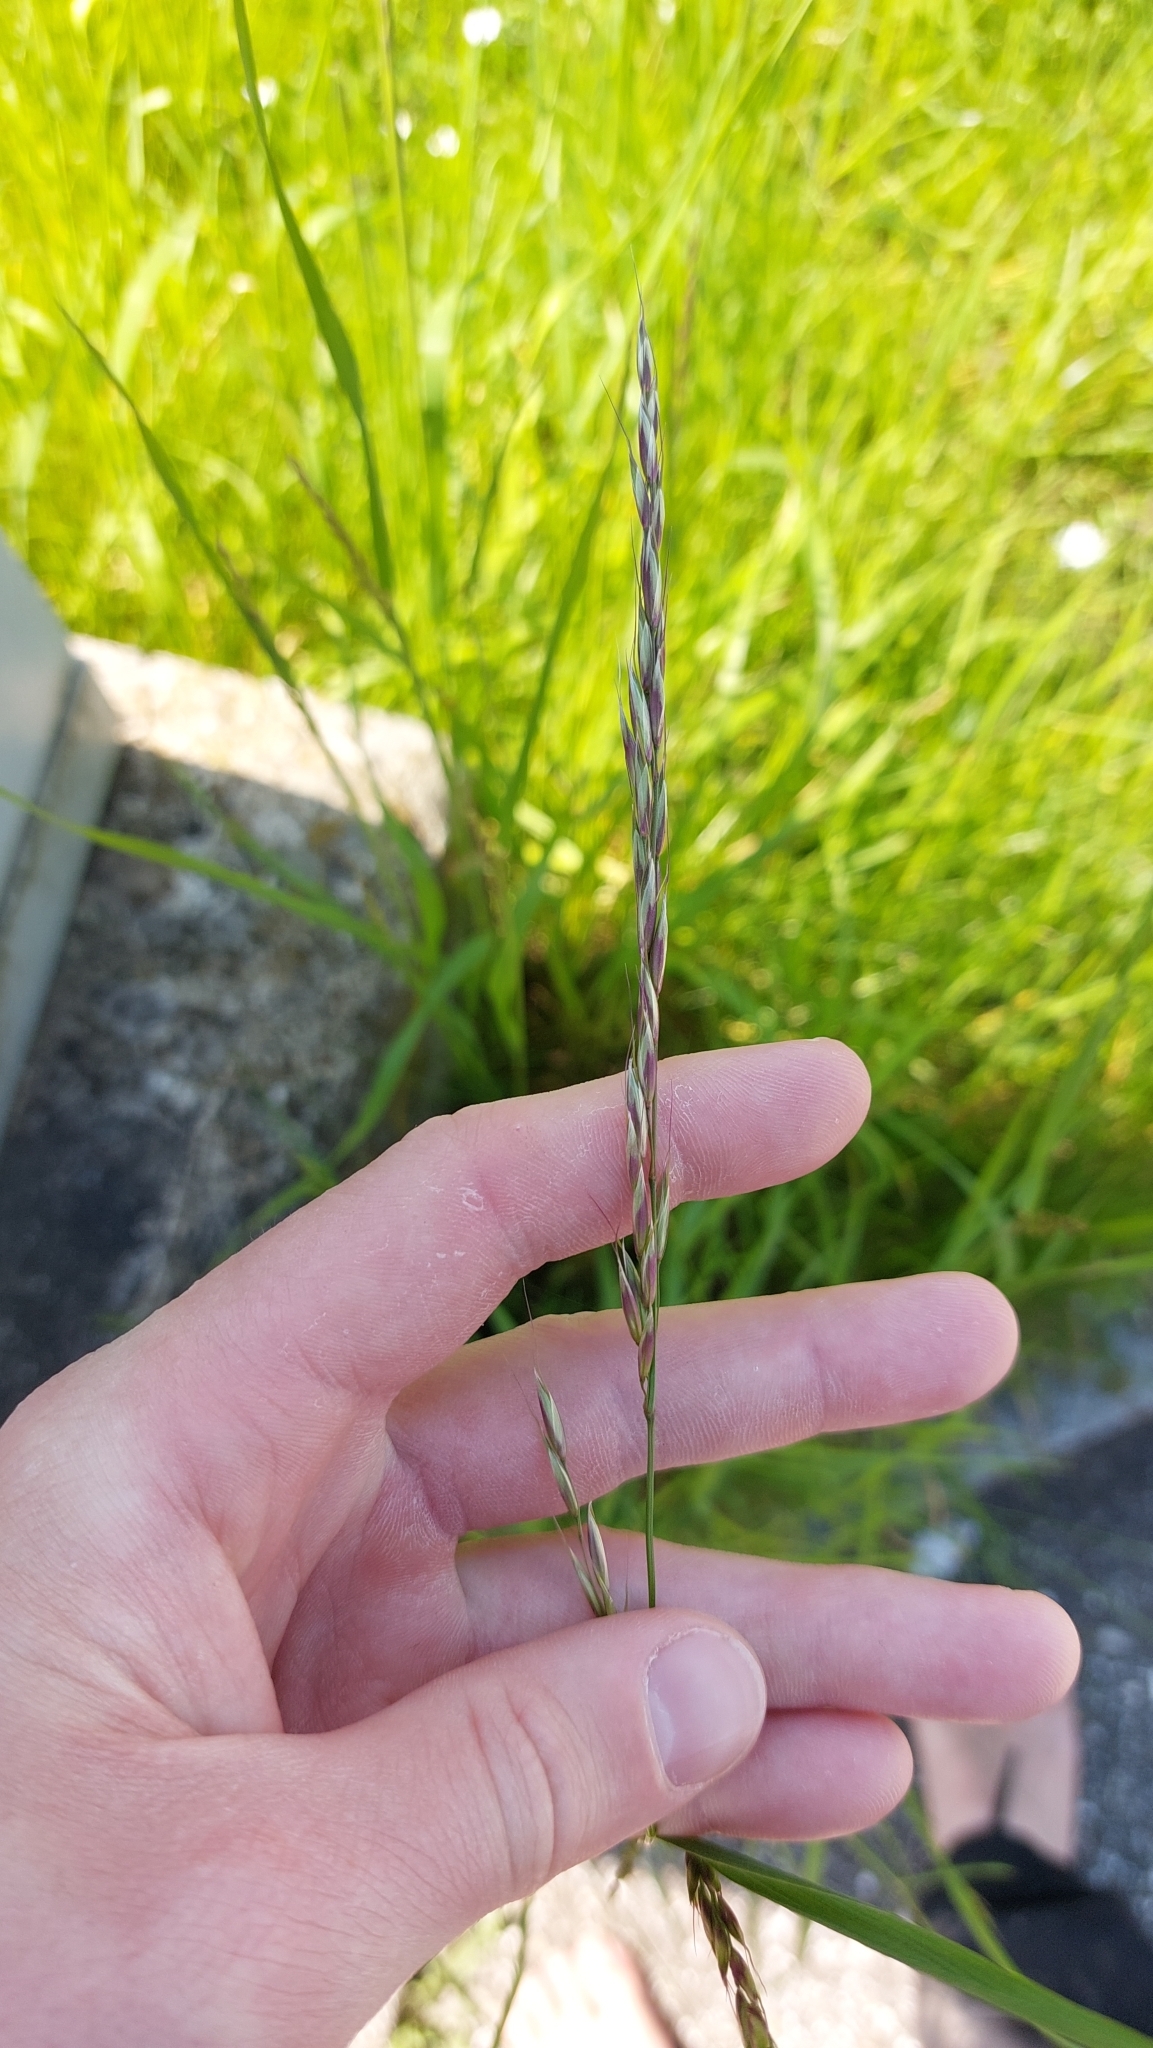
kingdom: Plantae
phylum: Tracheophyta
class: Liliopsida
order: Poales
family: Poaceae
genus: Arrhenatherum
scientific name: Arrhenatherum elatius
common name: Tall oatgrass
